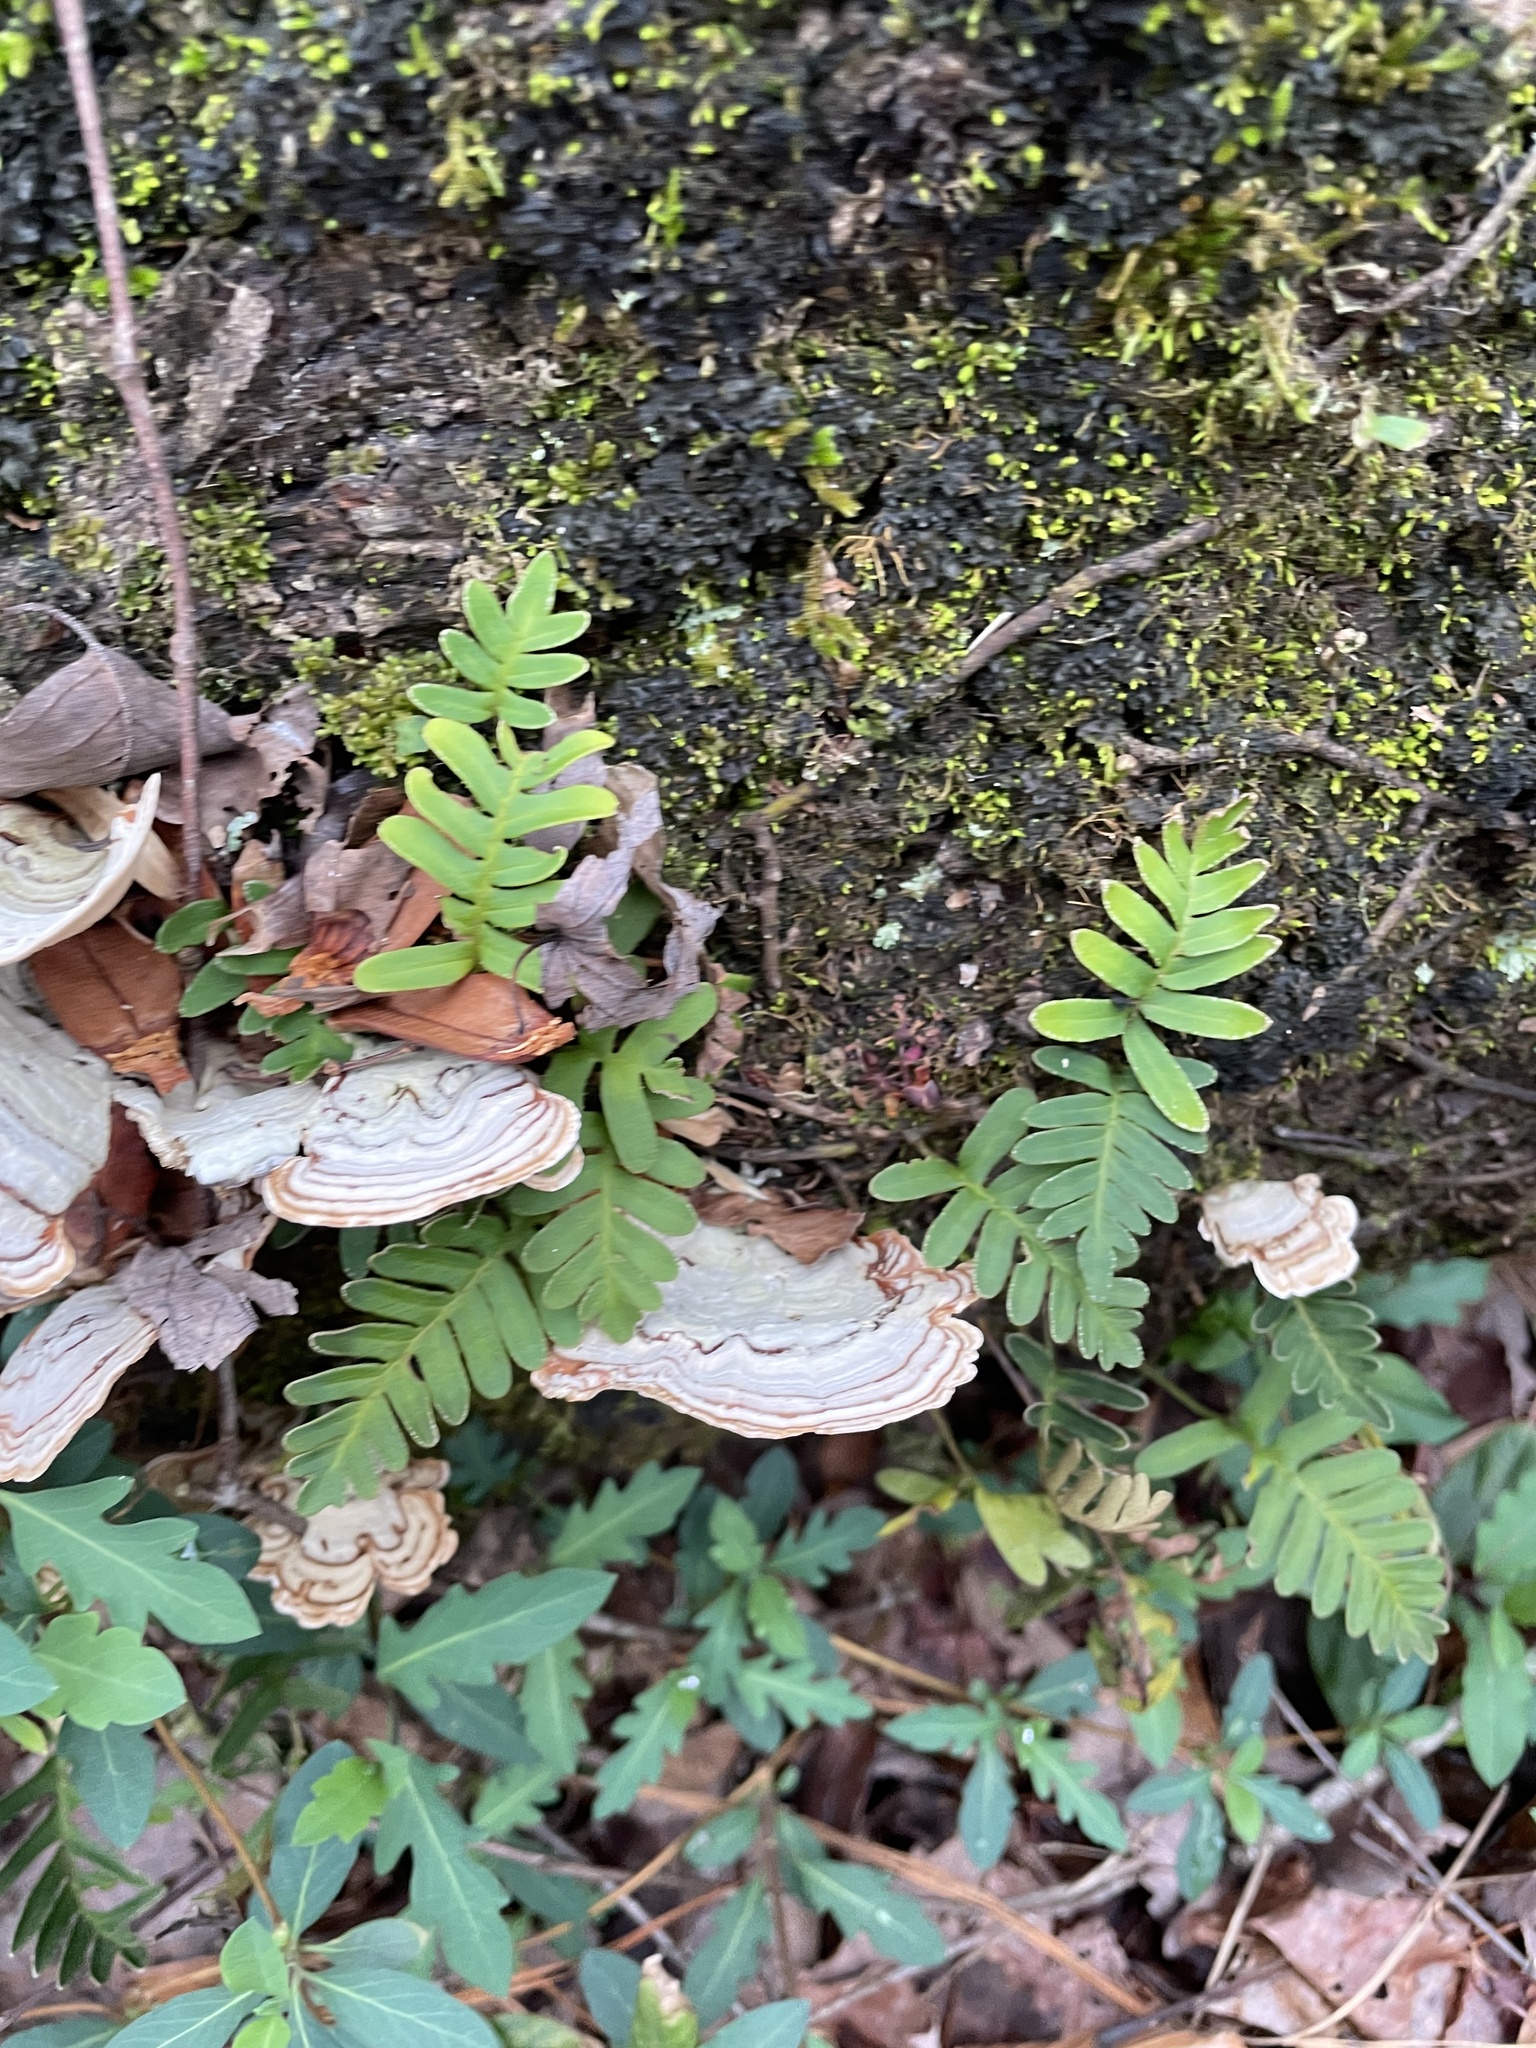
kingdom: Plantae
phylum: Tracheophyta
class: Polypodiopsida
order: Polypodiales
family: Polypodiaceae
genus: Pleopeltis
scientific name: Pleopeltis michauxiana
